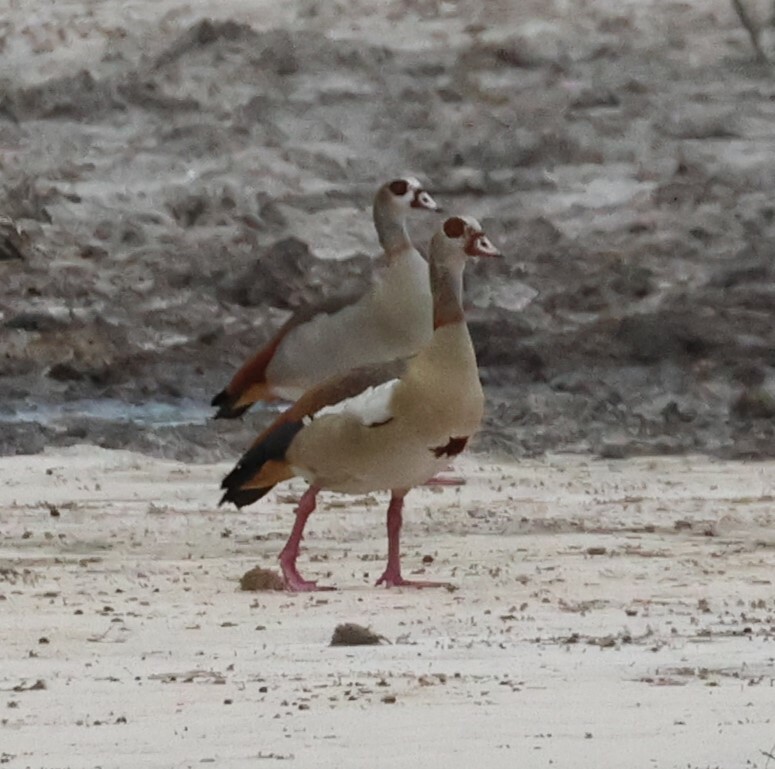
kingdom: Animalia
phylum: Chordata
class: Aves
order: Anseriformes
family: Anatidae
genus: Alopochen
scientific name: Alopochen aegyptiaca
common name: Egyptian goose
